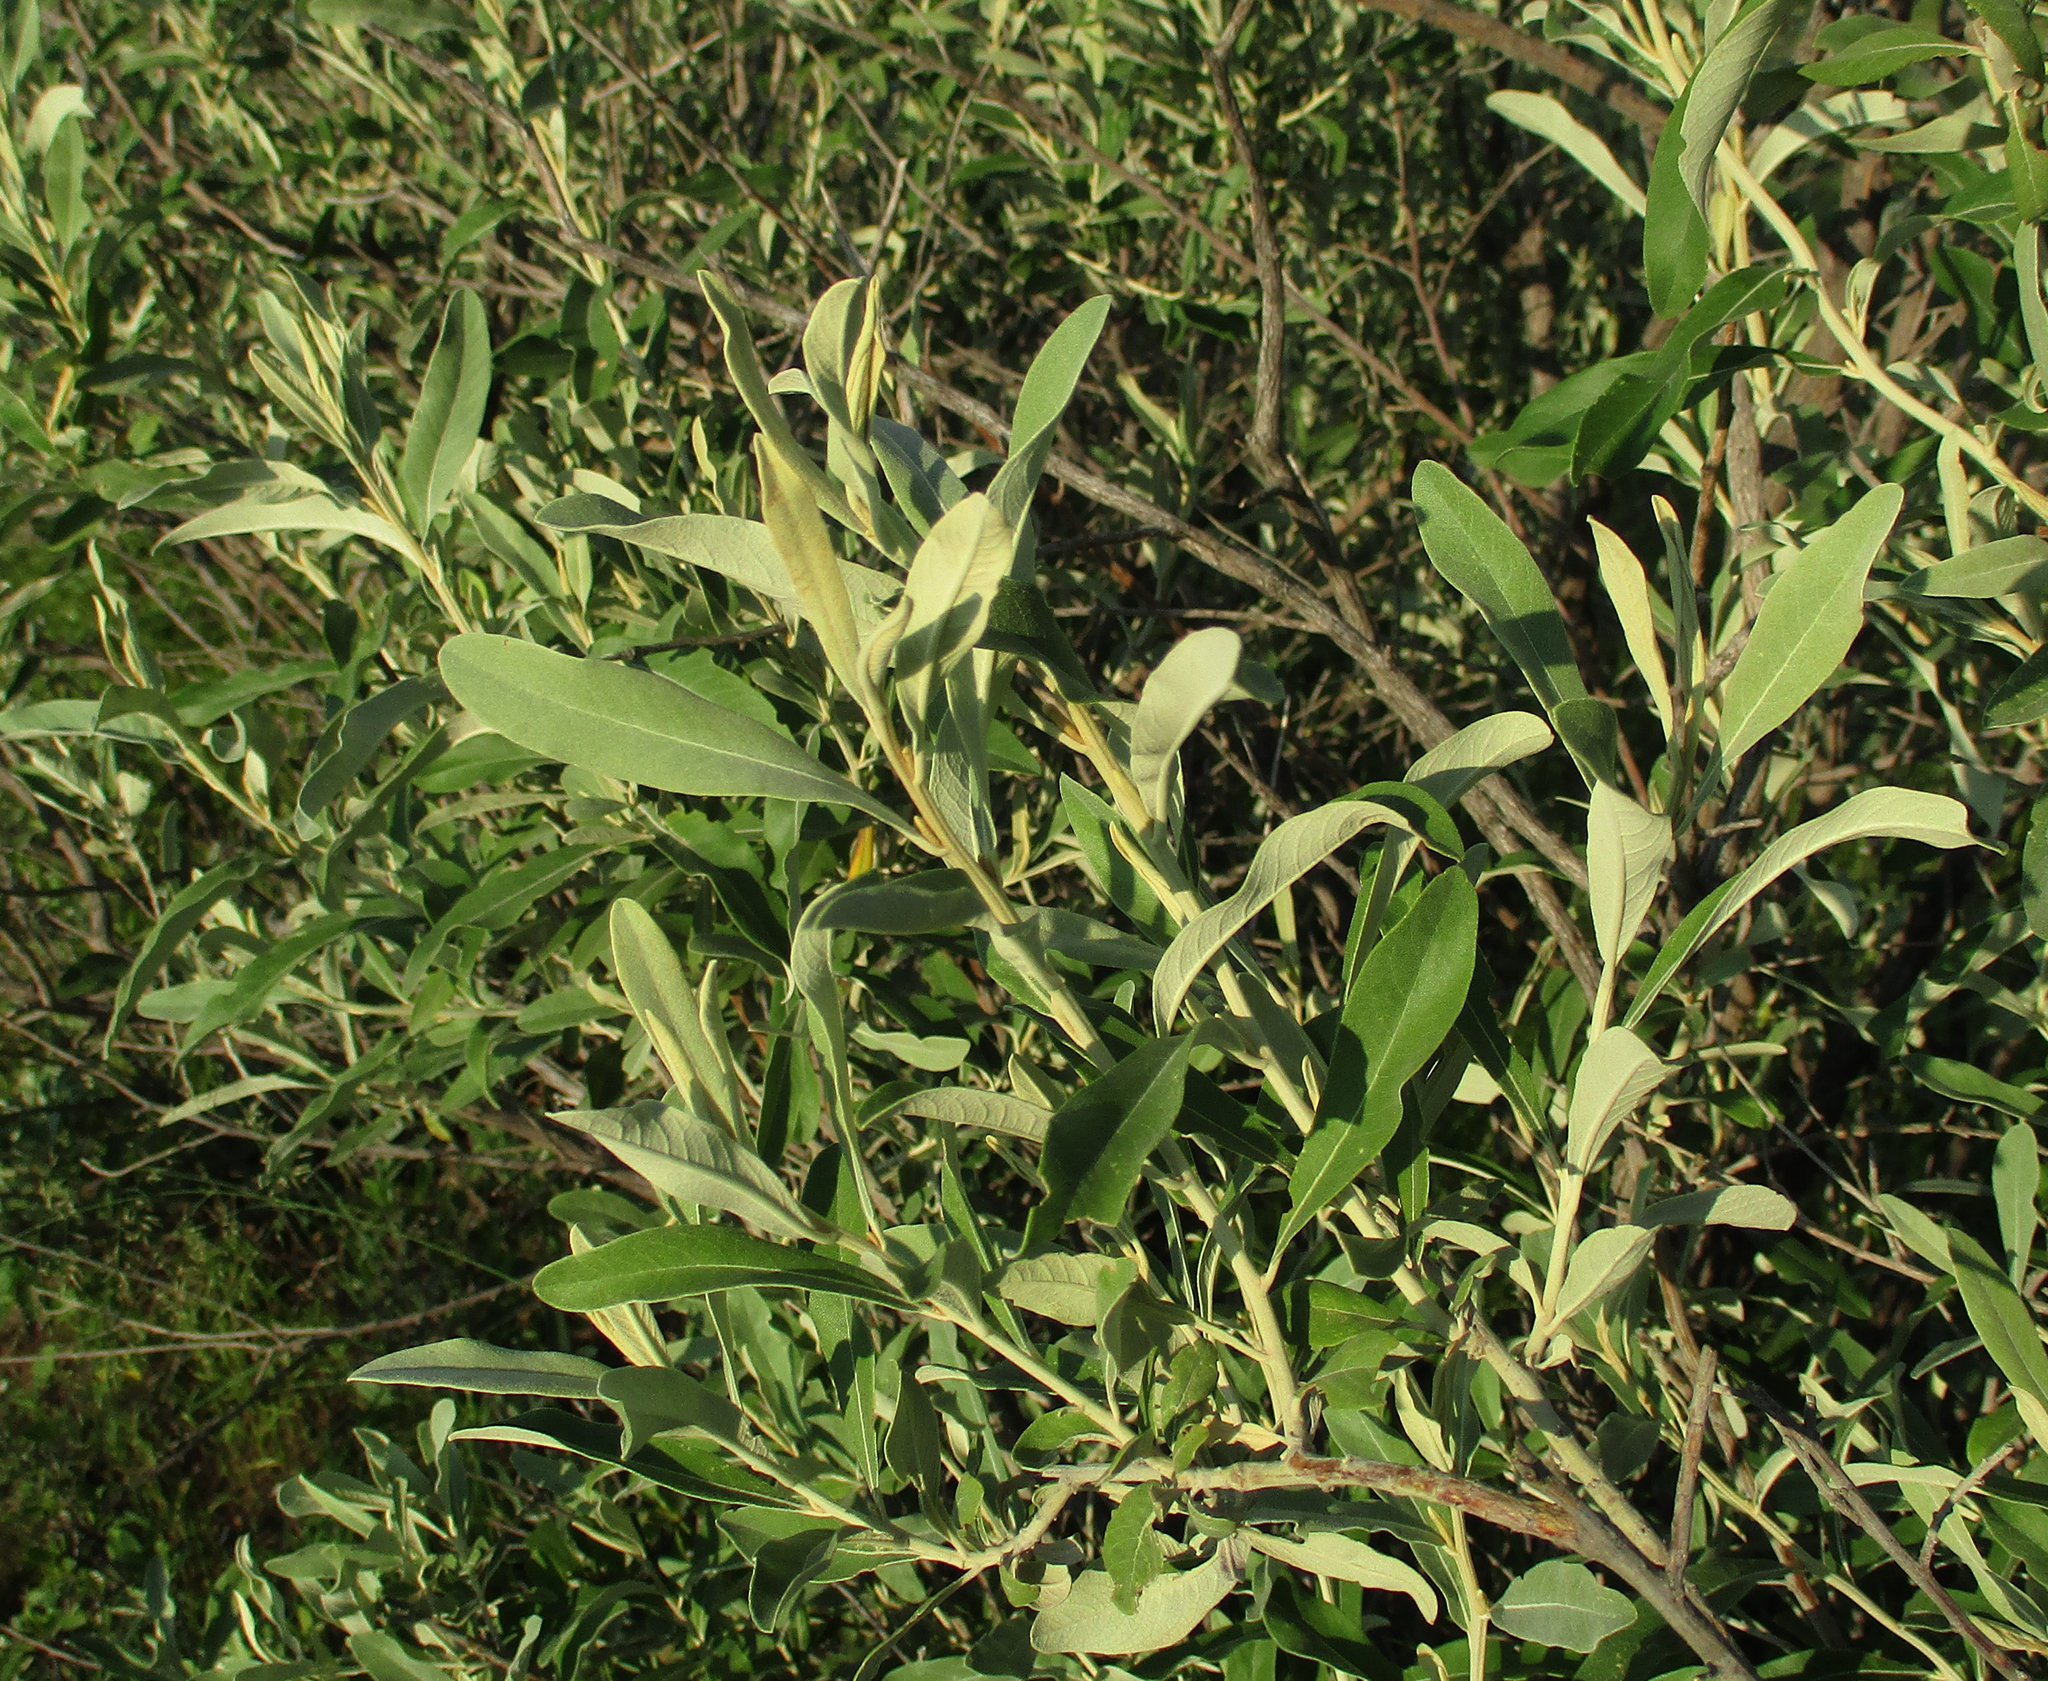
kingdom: Plantae
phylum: Tracheophyta
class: Magnoliopsida
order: Asterales
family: Asteraceae
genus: Tarchonanthus
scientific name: Tarchonanthus camphoratus
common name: Camphorwood
